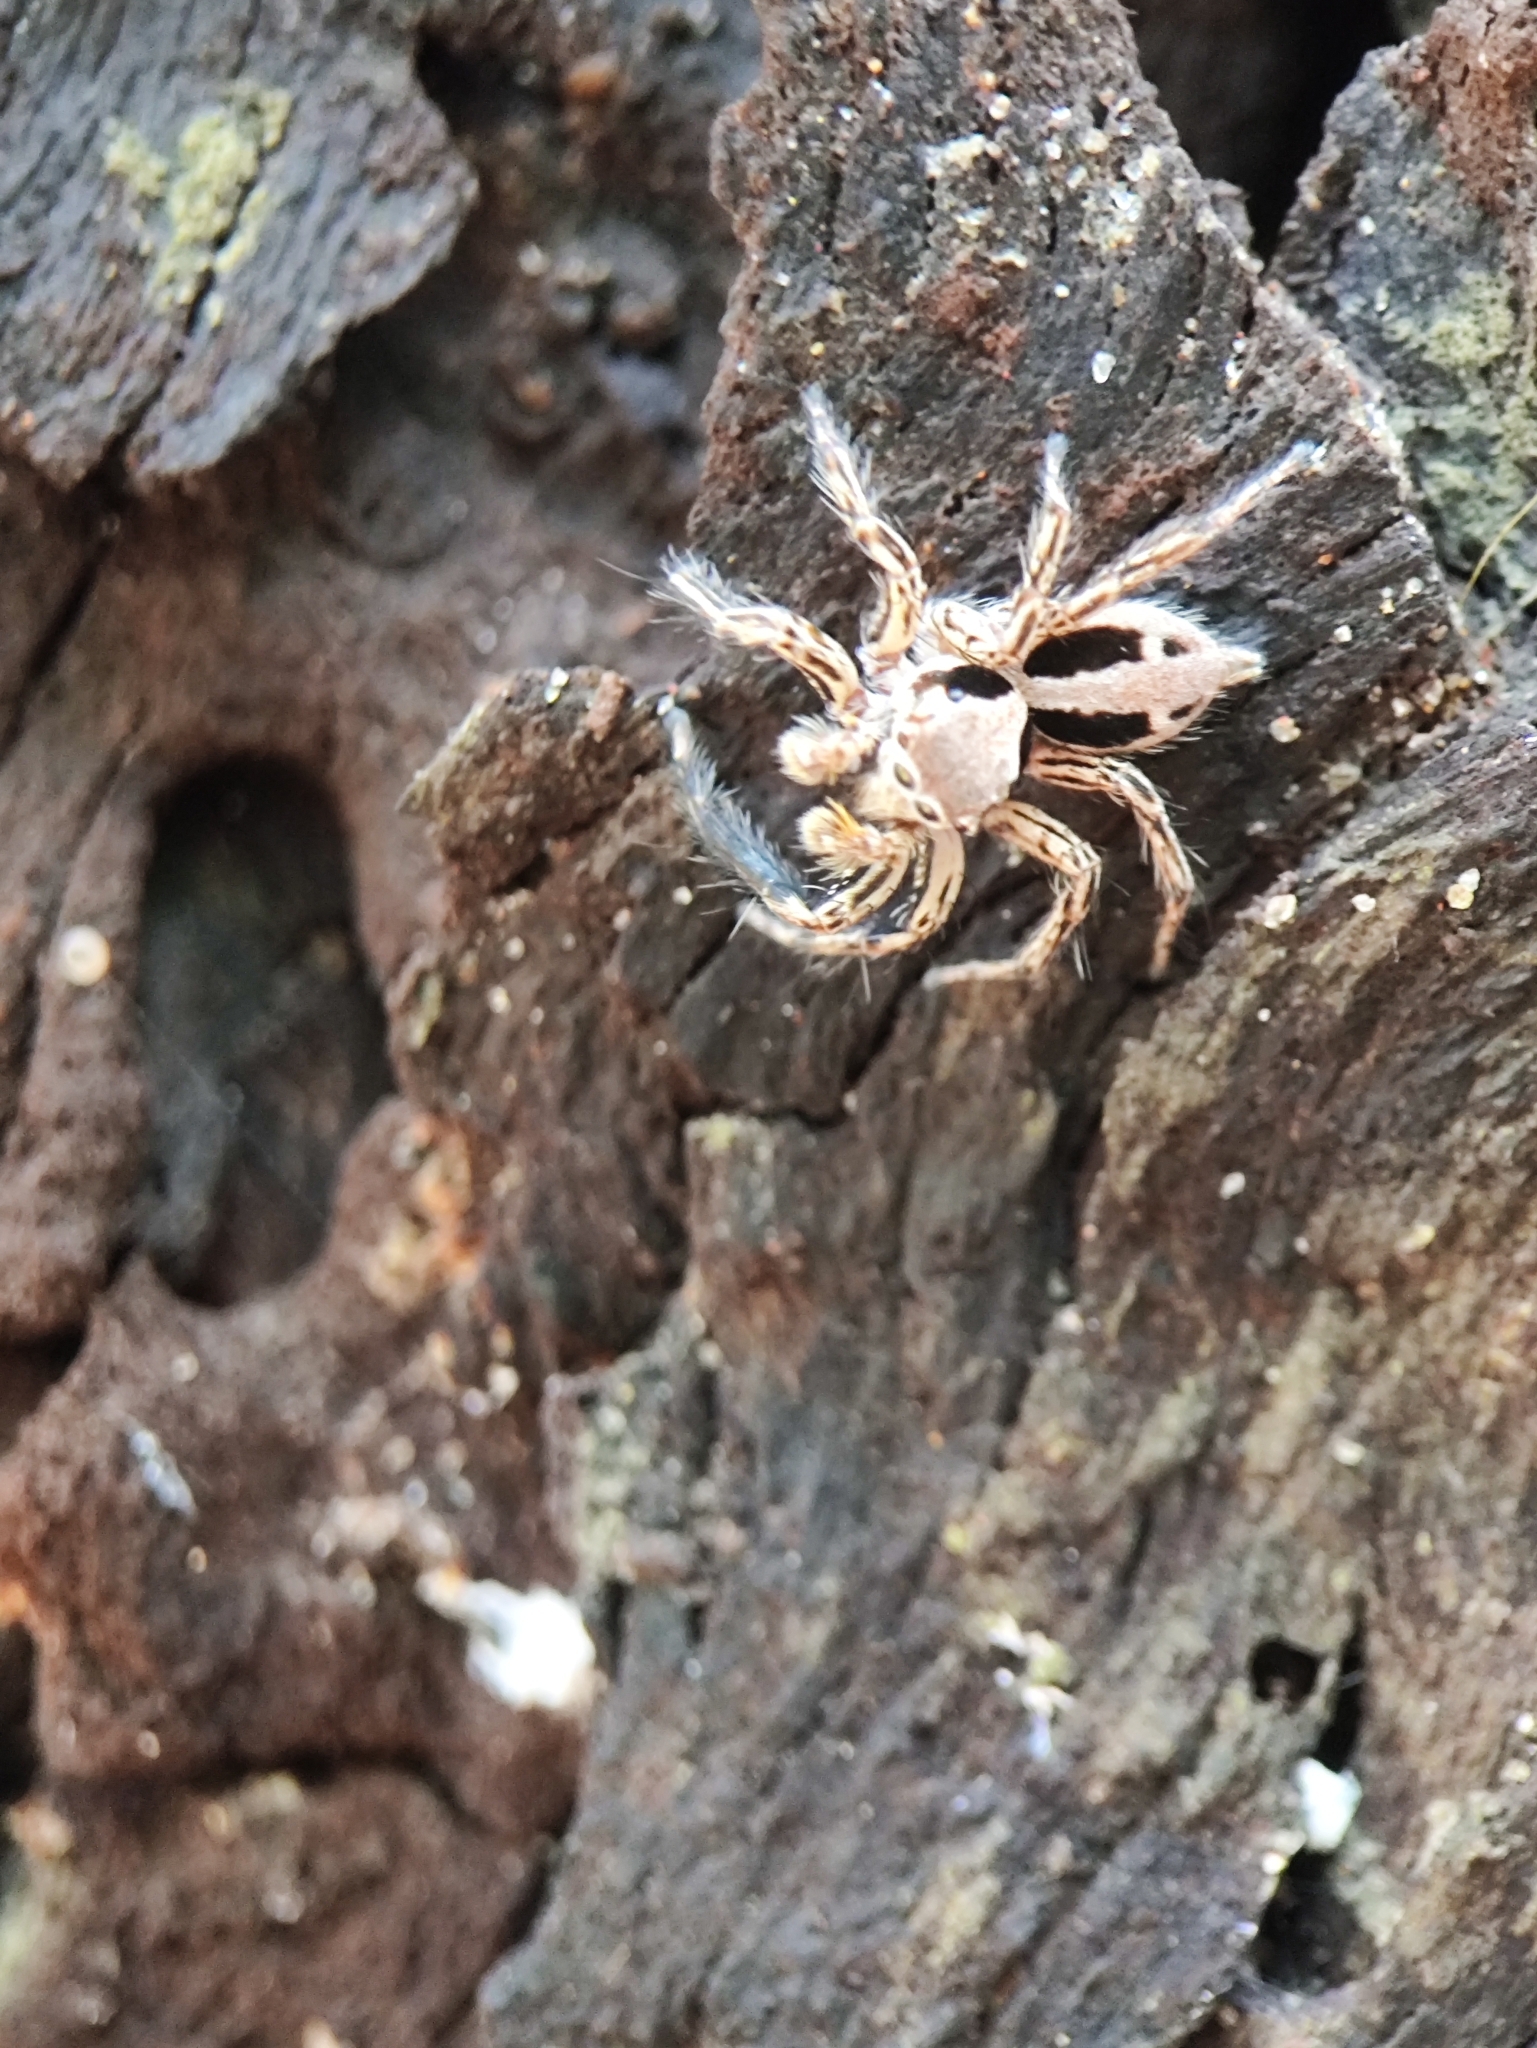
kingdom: Animalia
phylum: Arthropoda
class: Arachnida
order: Araneae
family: Salticidae
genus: Plexippus
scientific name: Plexippus petersi
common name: Jumping spider
